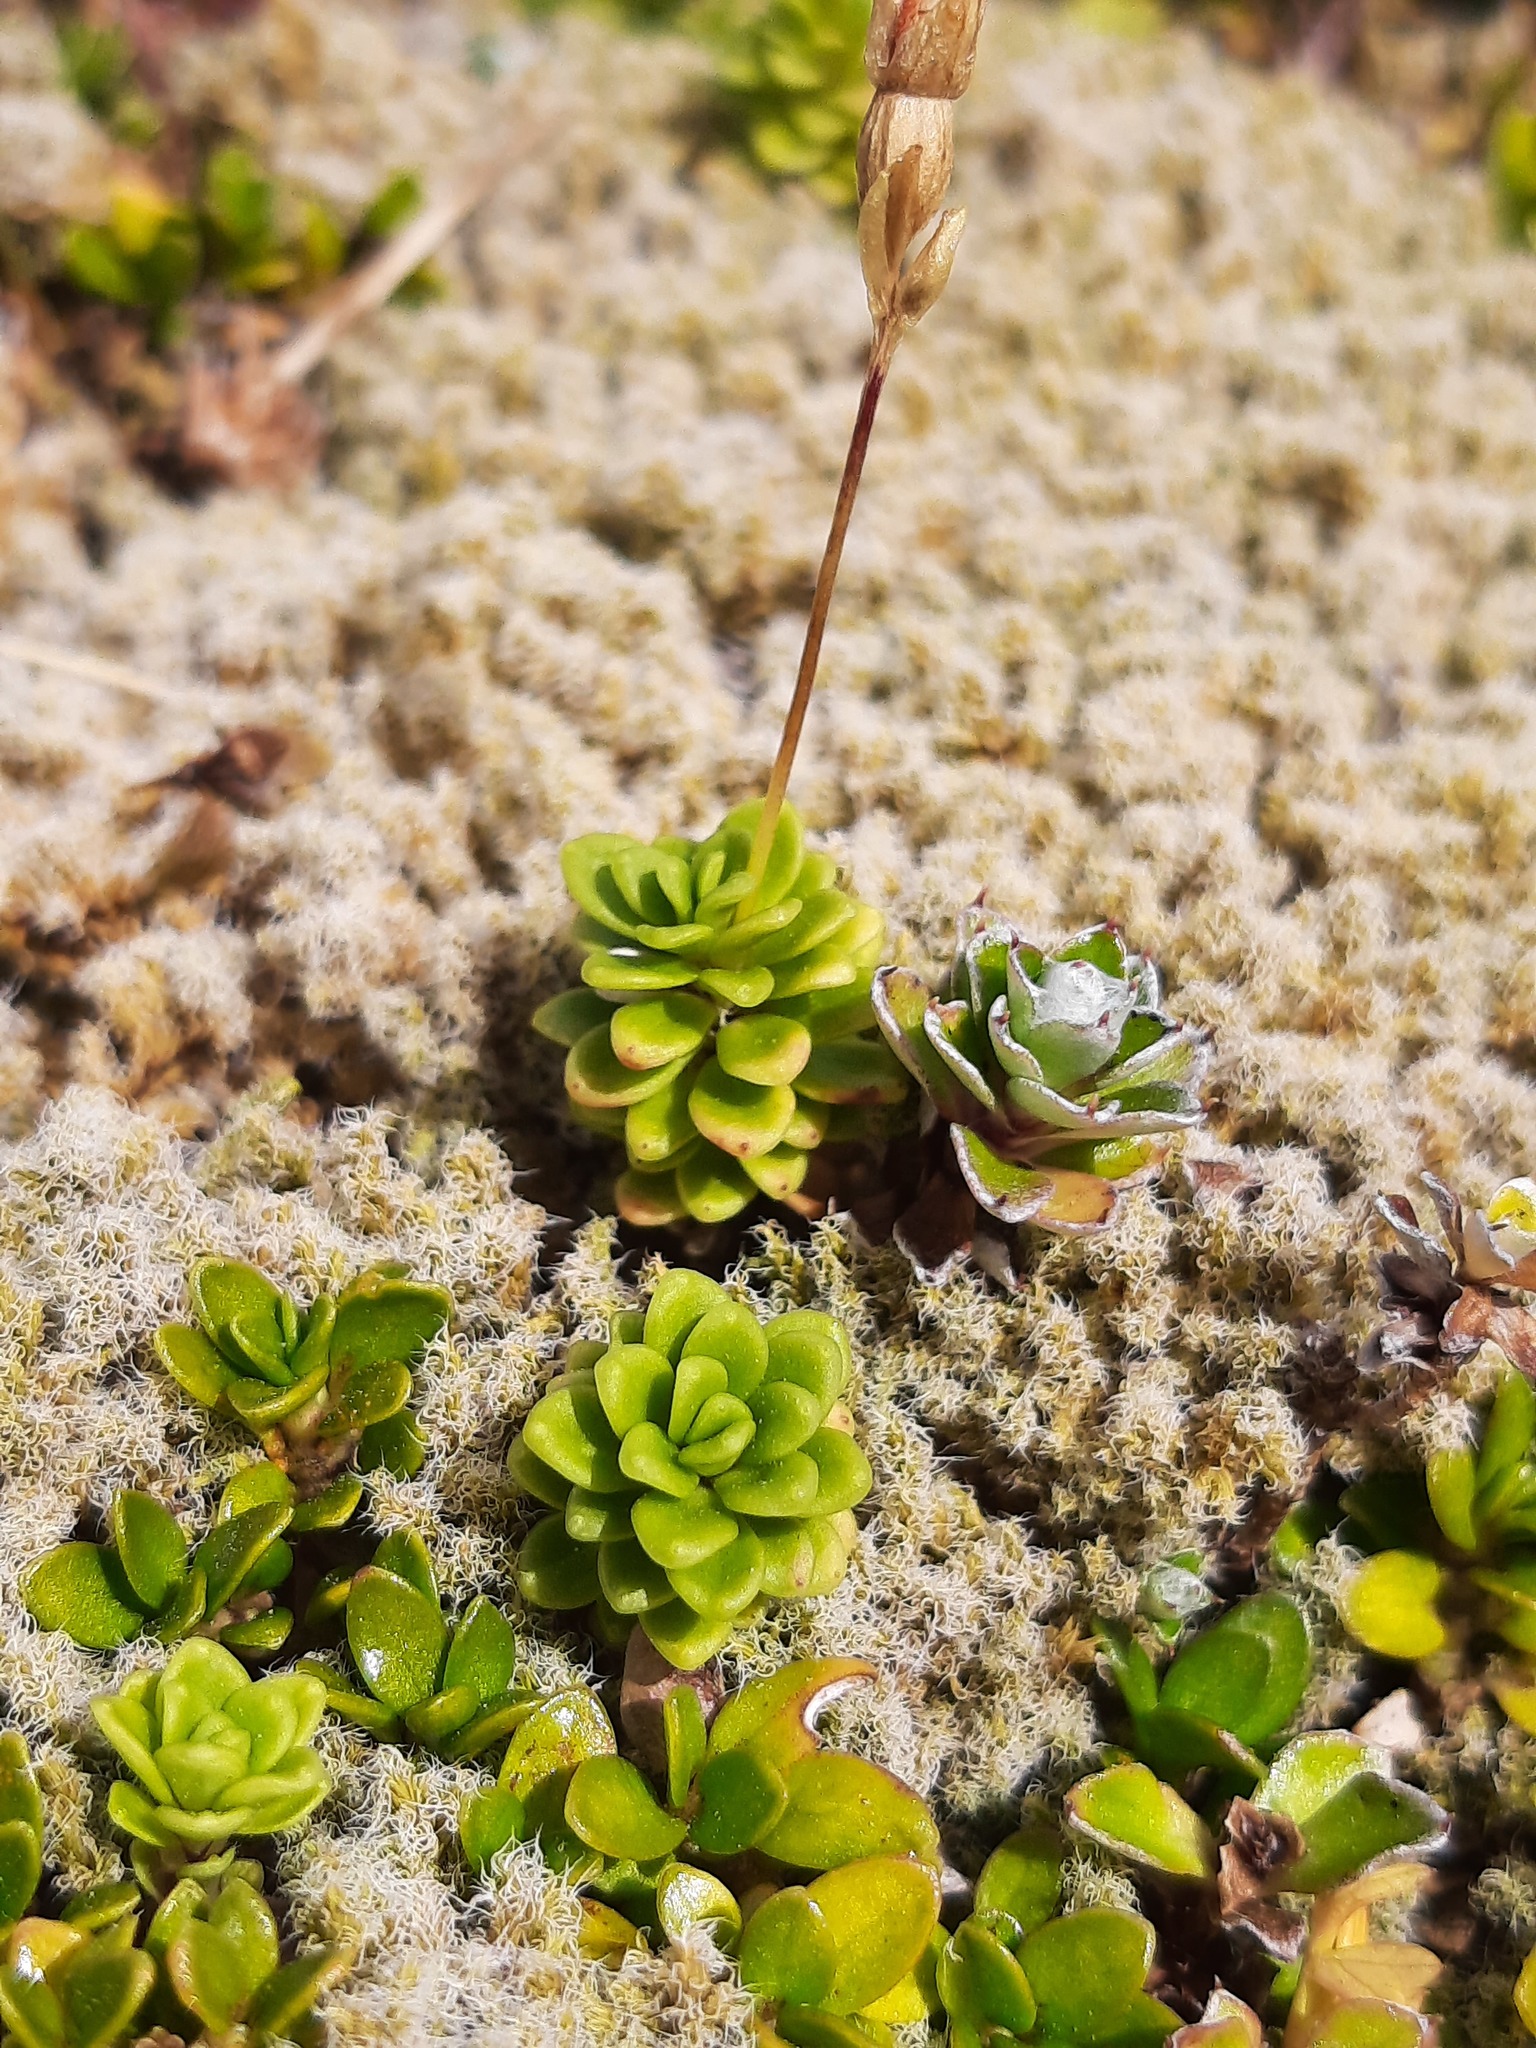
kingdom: Plantae
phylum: Tracheophyta
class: Magnoliopsida
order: Asterales
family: Stylidiaceae
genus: Forstera
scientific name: Forstera tenella
